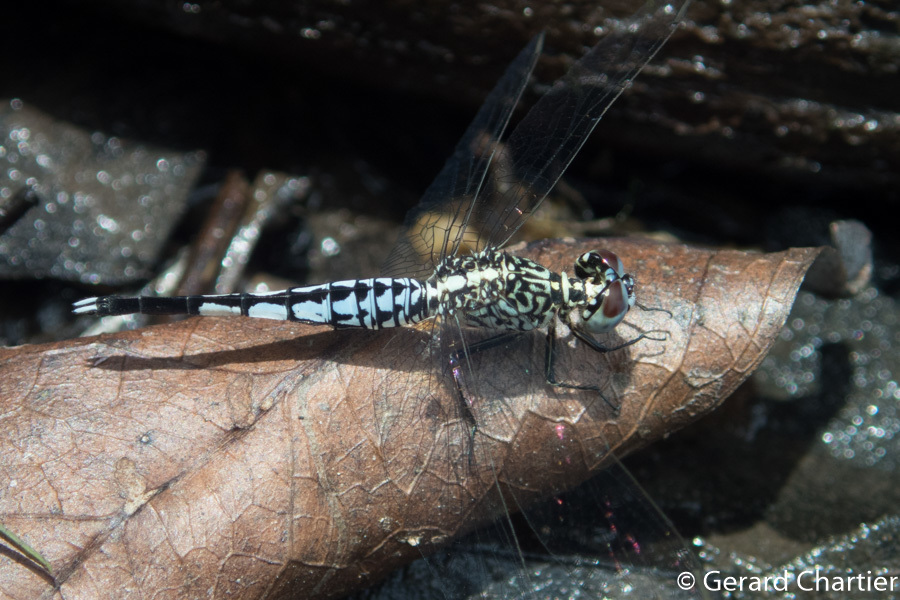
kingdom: Animalia
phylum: Arthropoda
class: Insecta
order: Odonata
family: Libellulidae
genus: Acisoma
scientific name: Acisoma panorpoides
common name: Asian pintail
